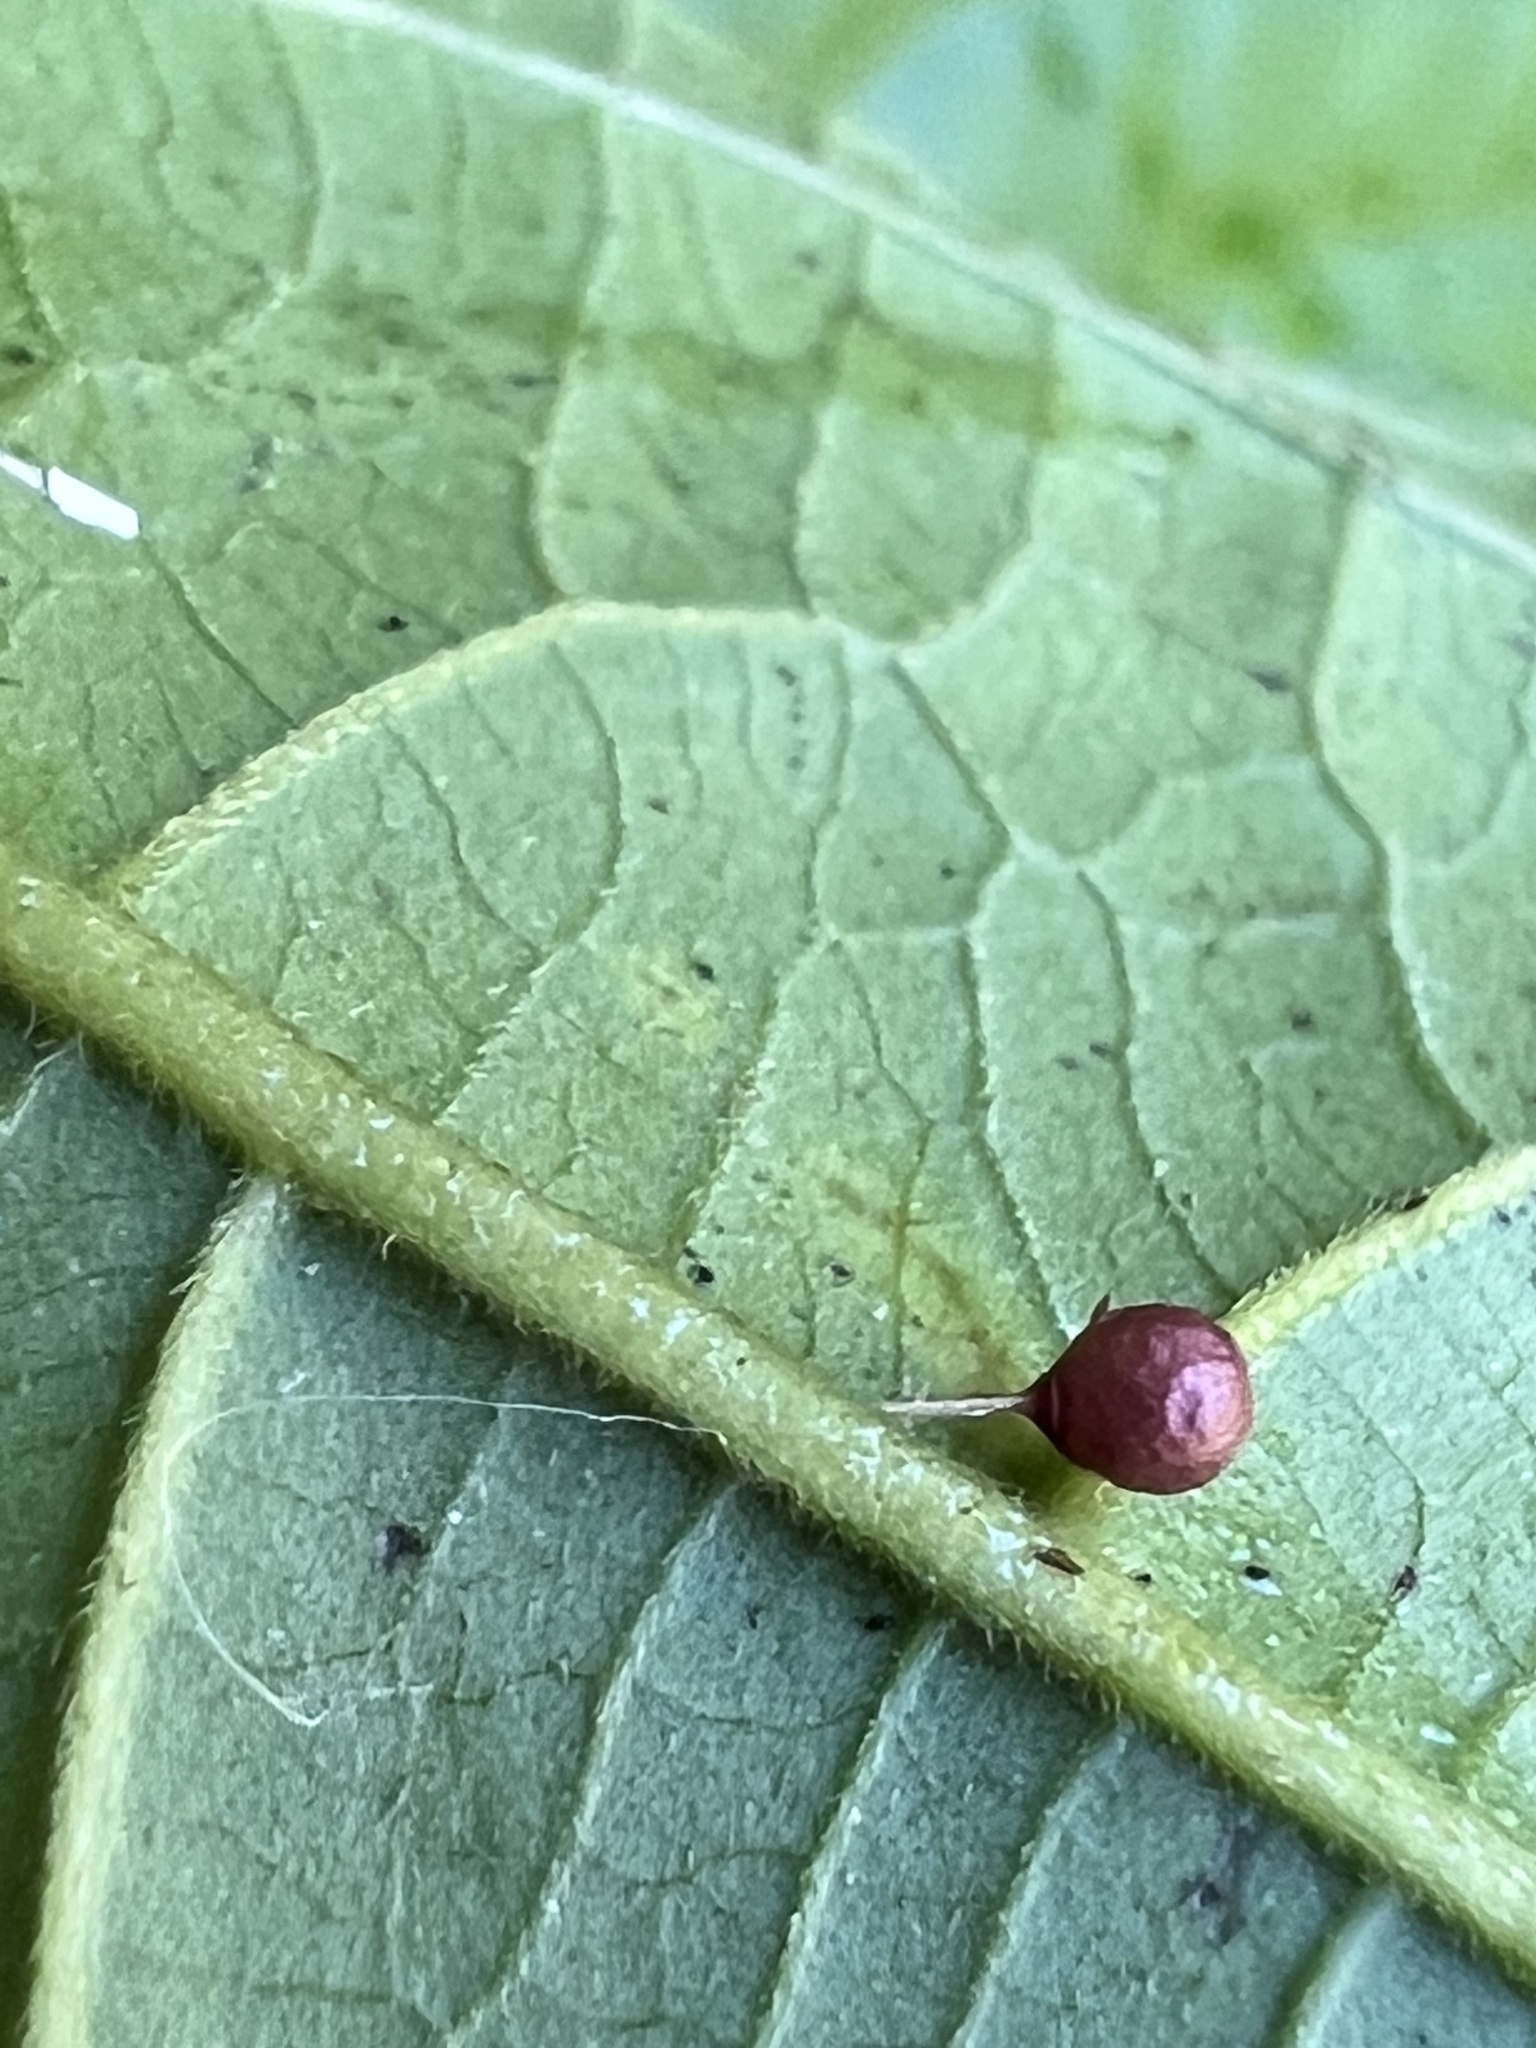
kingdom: Animalia
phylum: Arthropoda
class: Arachnida
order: Araneae
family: Theridiosomatidae
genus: Theridiosoma
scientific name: Theridiosoma gemmosum
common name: Ray spider
